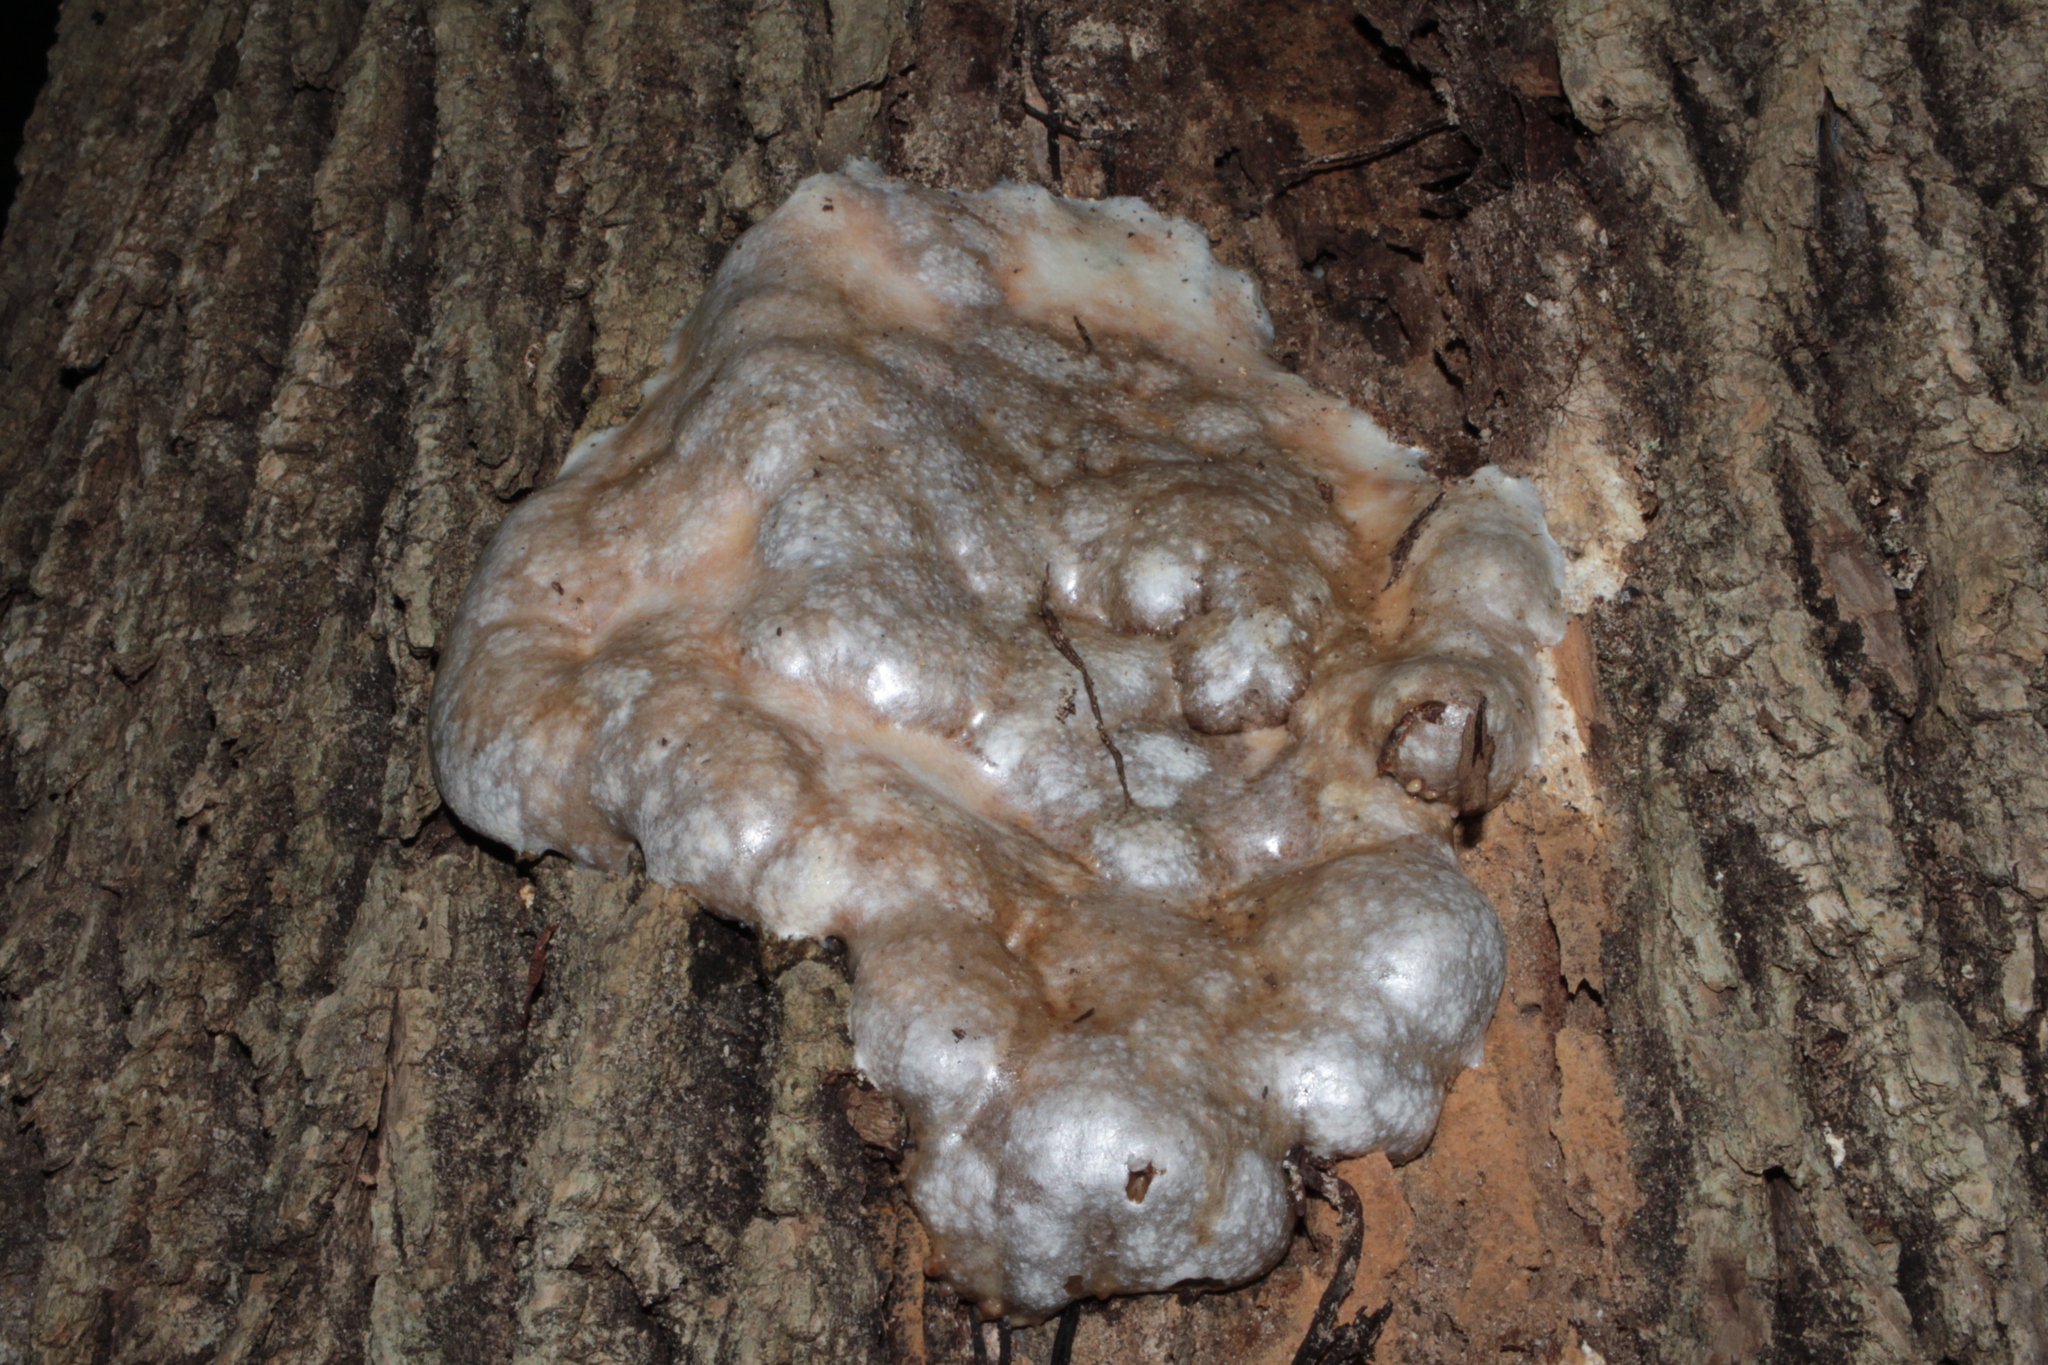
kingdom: Protozoa
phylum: Mycetozoa
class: Myxomycetes
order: Cribrariales
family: Tubiferaceae
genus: Reticularia
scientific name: Reticularia lycoperdon
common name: False puffball
